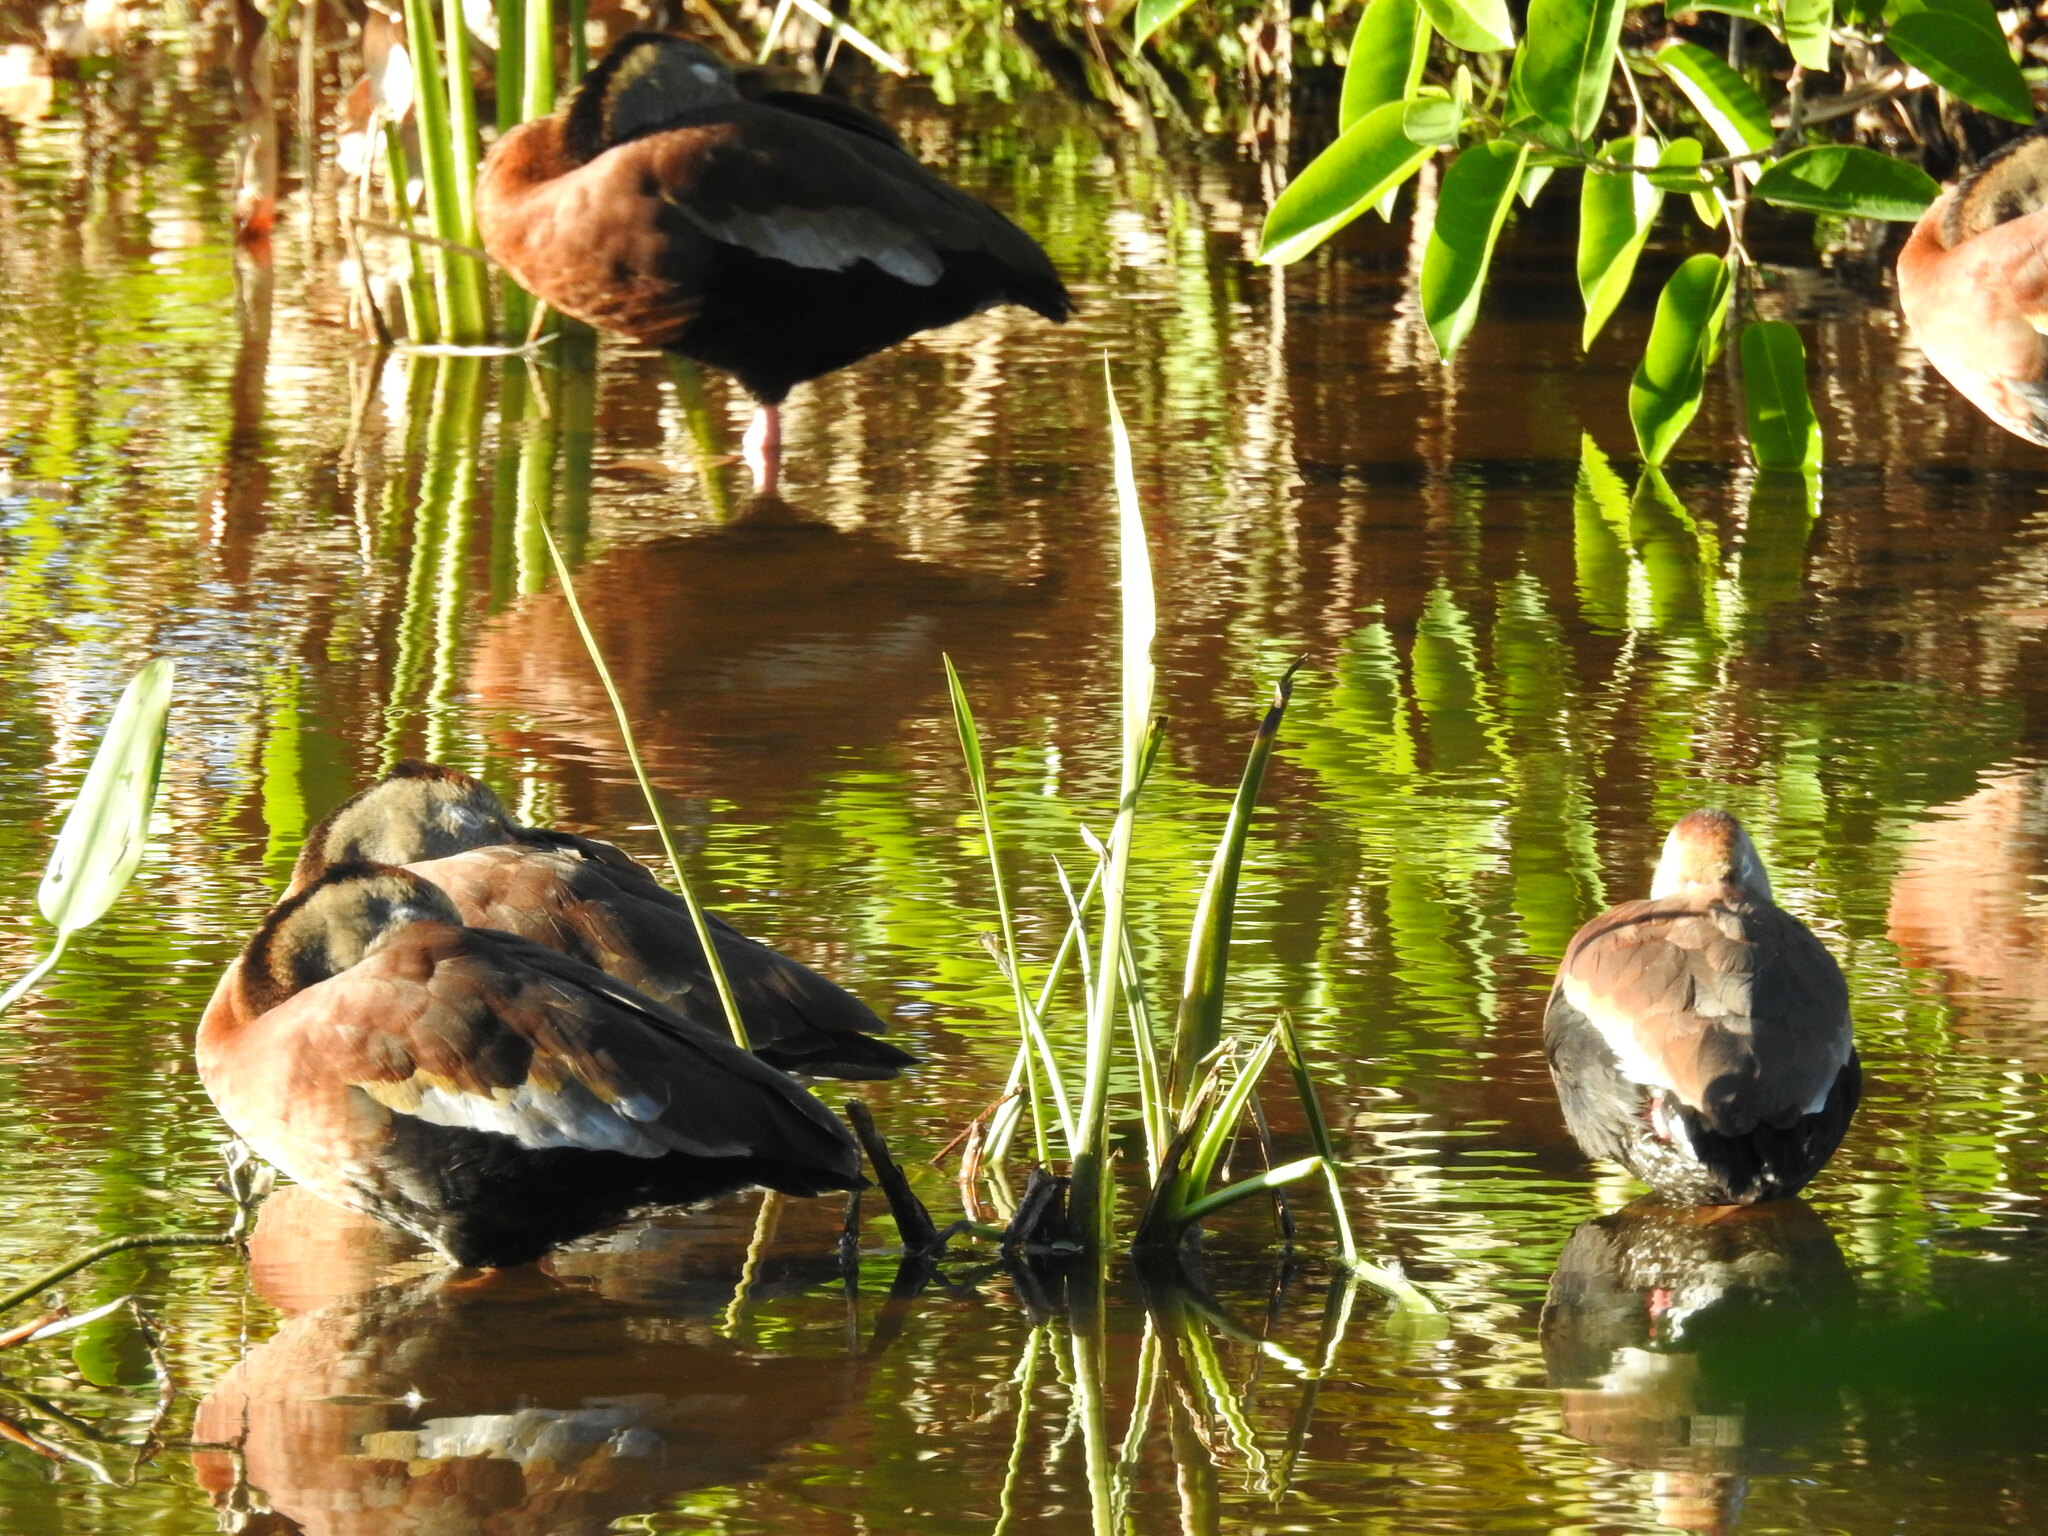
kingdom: Animalia
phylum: Chordata
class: Aves
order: Anseriformes
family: Anatidae
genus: Dendrocygna
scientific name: Dendrocygna autumnalis
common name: Black-bellied whistling duck
